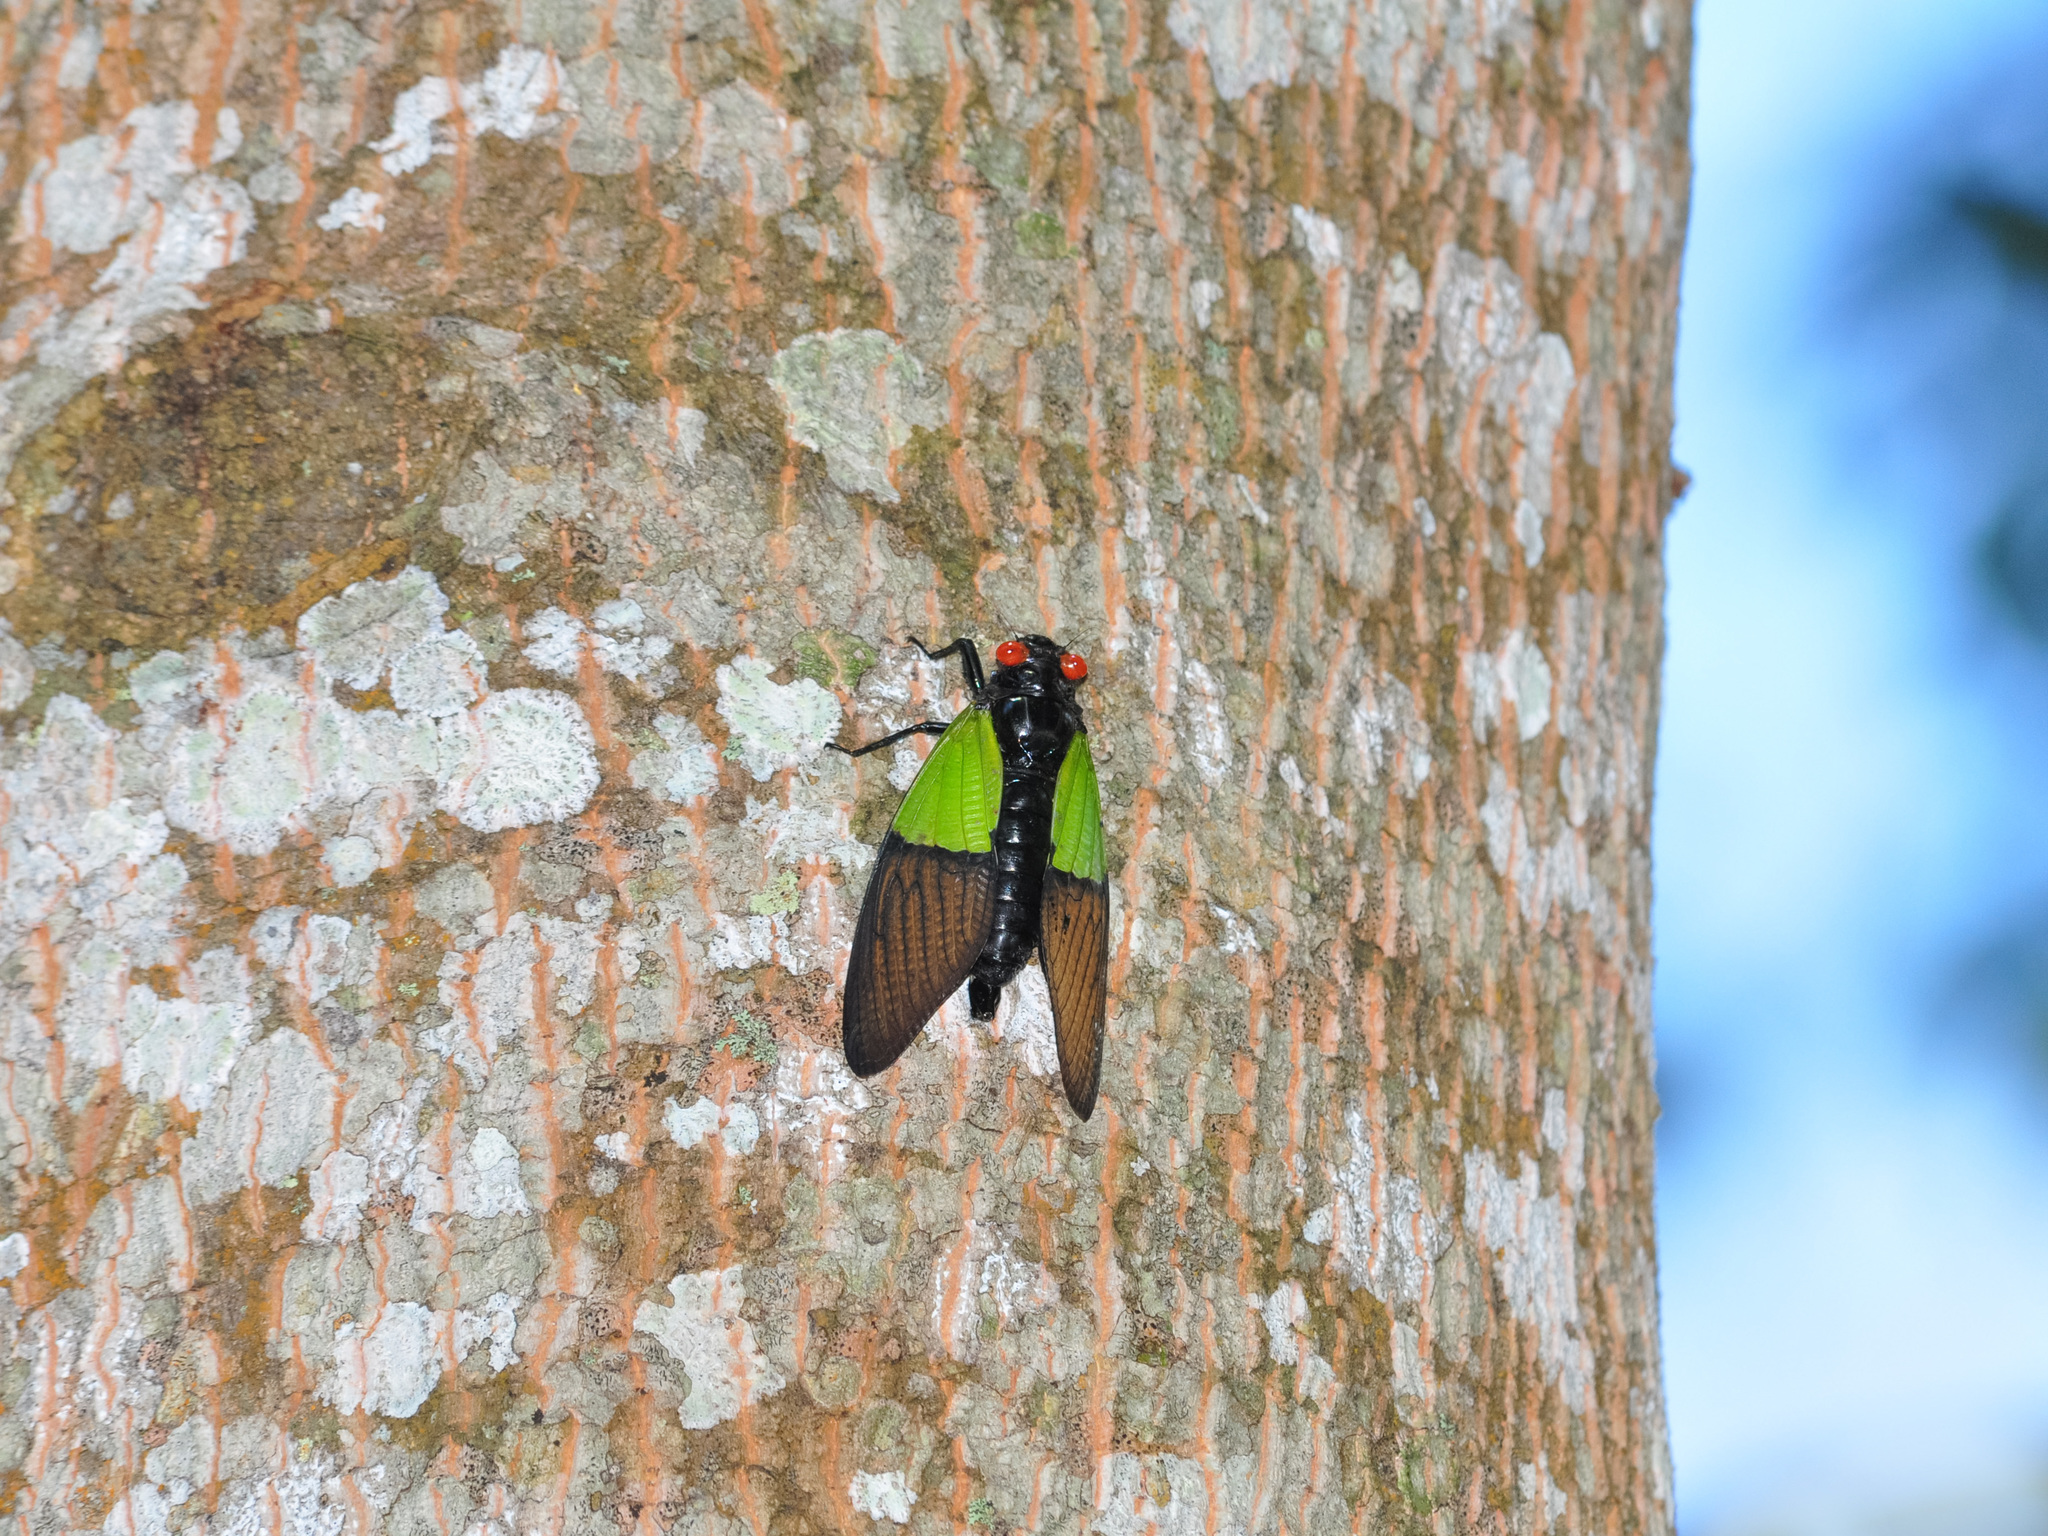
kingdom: Animalia
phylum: Arthropoda
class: Insecta
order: Hemiptera
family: Cicadidae
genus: Trengganua
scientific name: Trengganua sibylla
